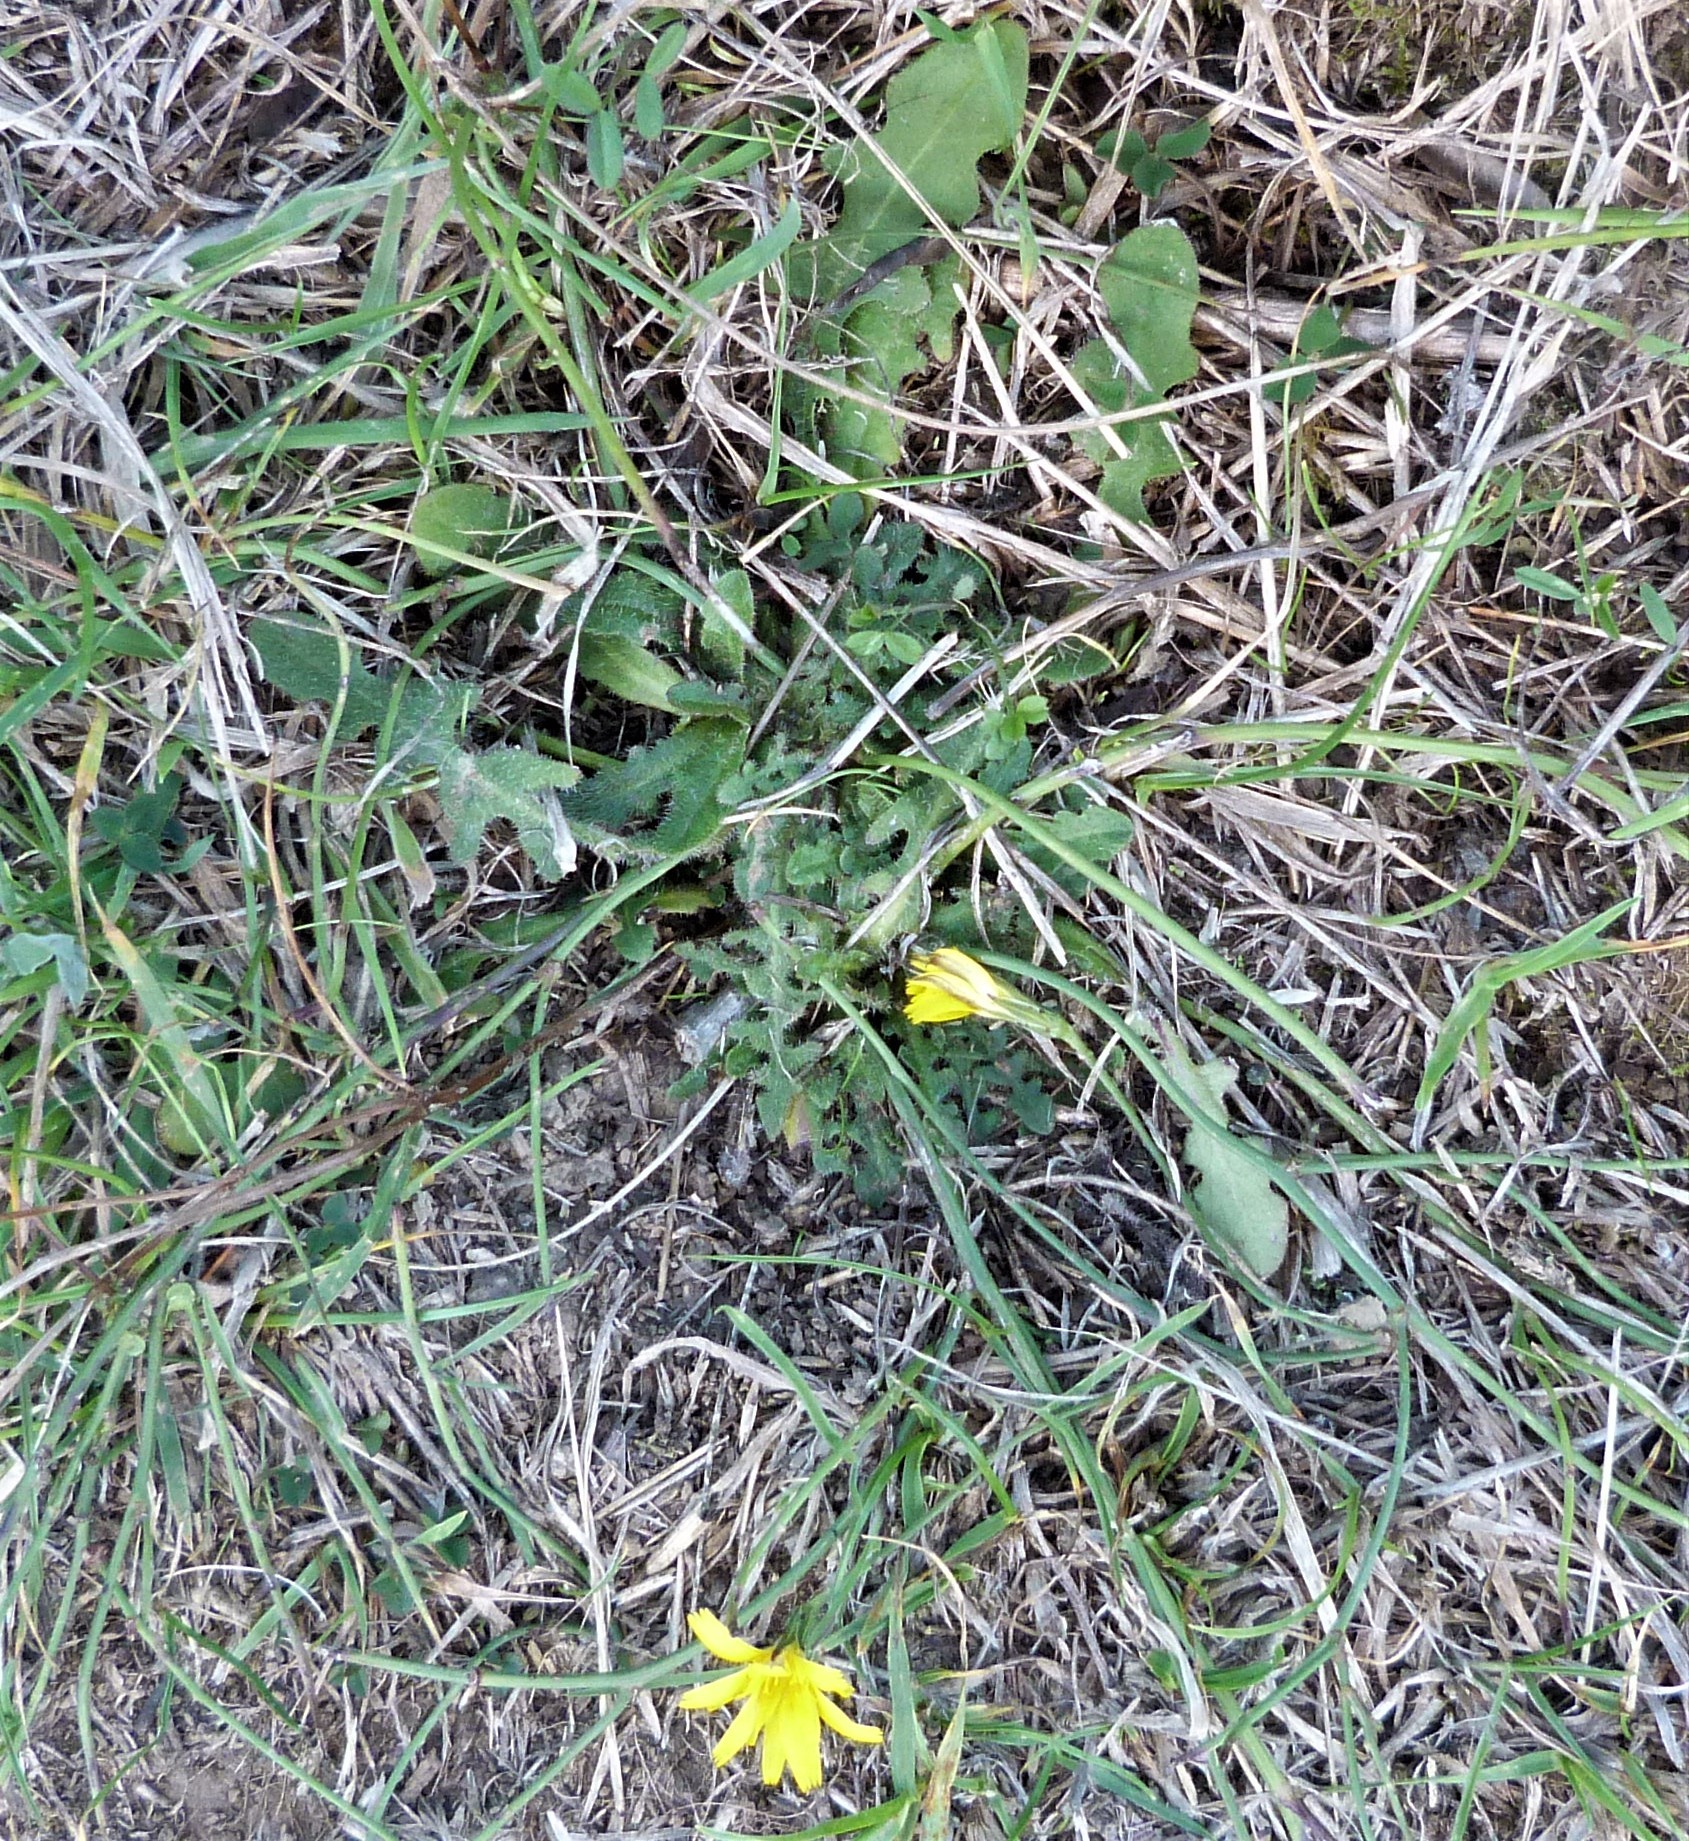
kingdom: Plantae
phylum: Tracheophyta
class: Magnoliopsida
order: Asterales
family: Asteraceae
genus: Hypochaeris
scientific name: Hypochaeris radicata
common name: Flatweed
